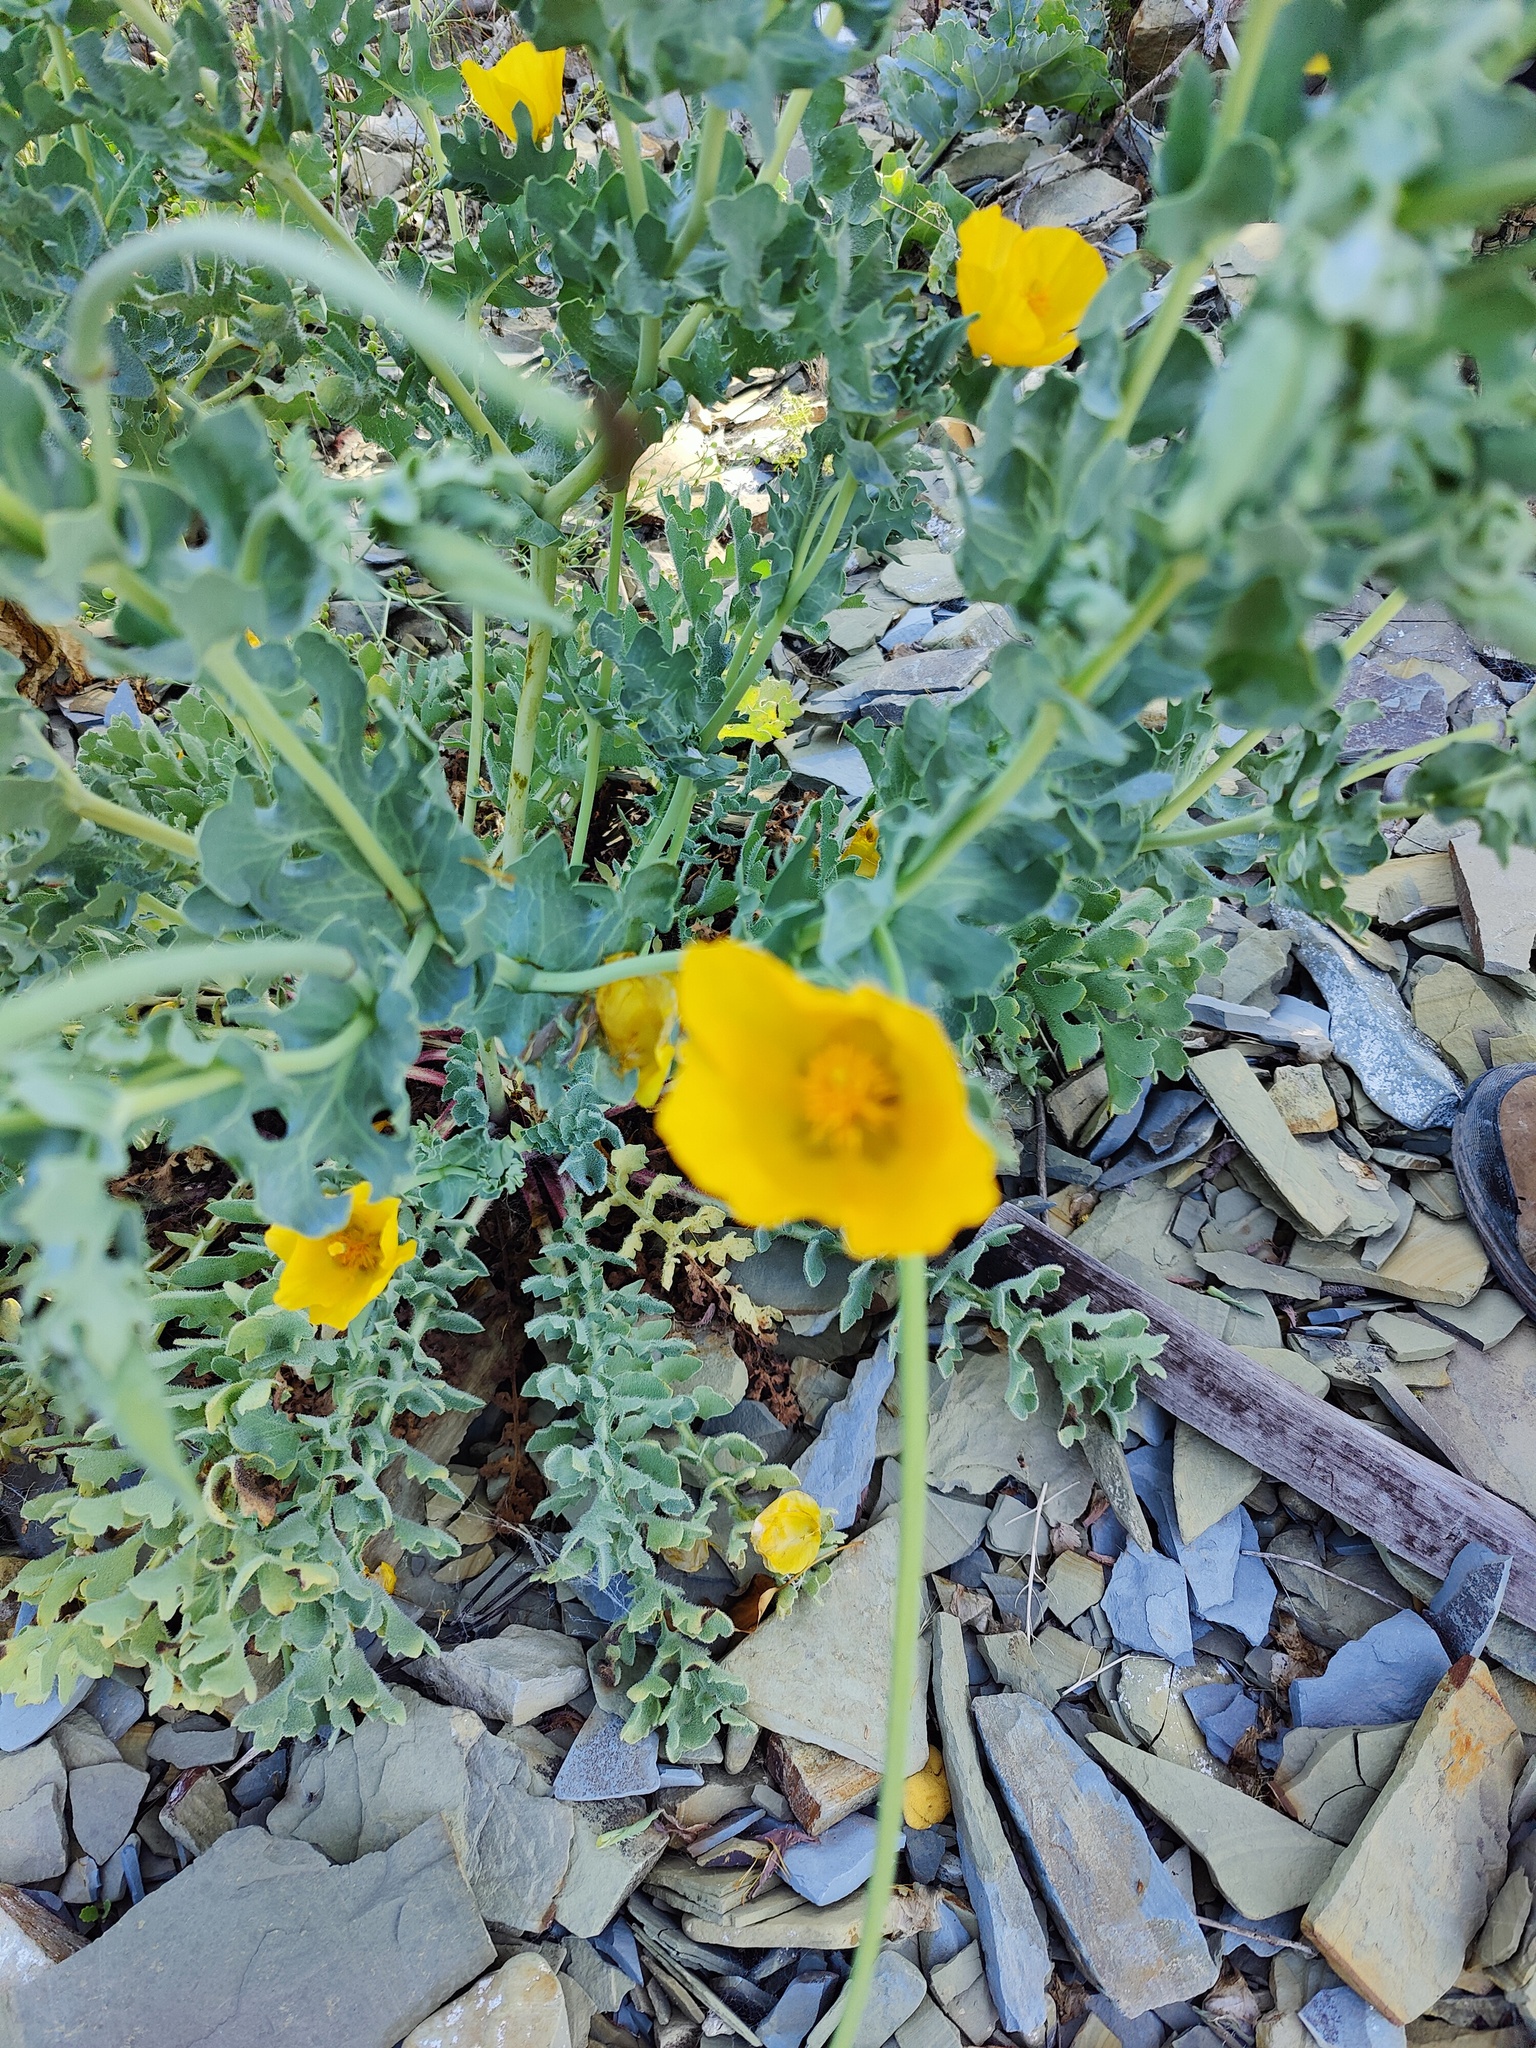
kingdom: Plantae
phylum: Tracheophyta
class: Magnoliopsida
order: Ranunculales
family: Papaveraceae
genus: Glaucium
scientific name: Glaucium flavum
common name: Yellow horned-poppy
